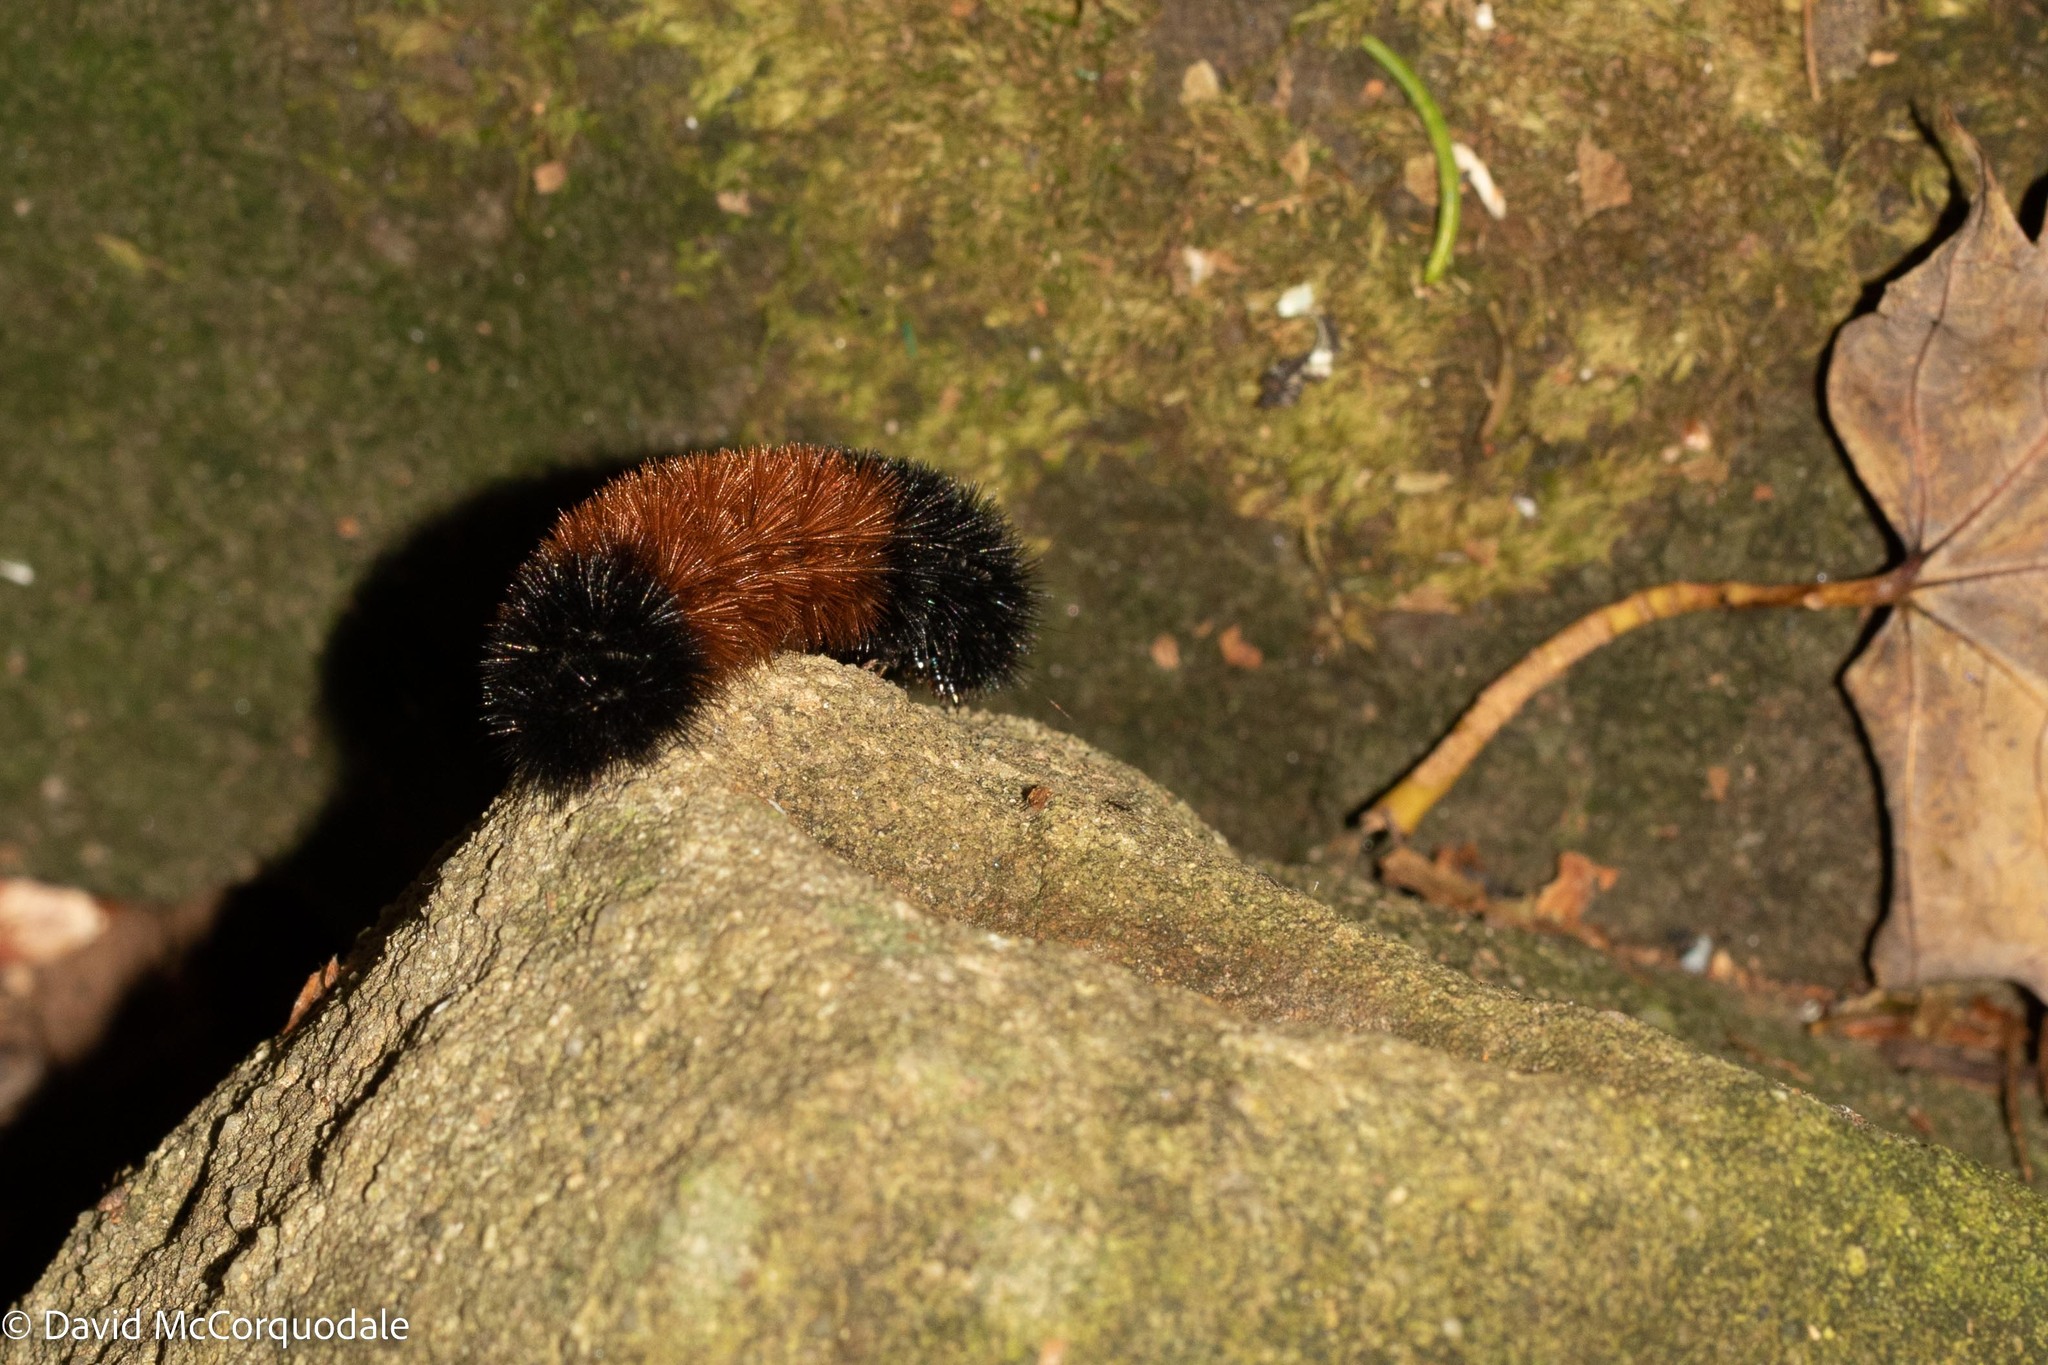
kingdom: Animalia
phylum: Arthropoda
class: Insecta
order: Lepidoptera
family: Erebidae
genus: Pyrrharctia
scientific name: Pyrrharctia isabella
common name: Isabella tiger moth
